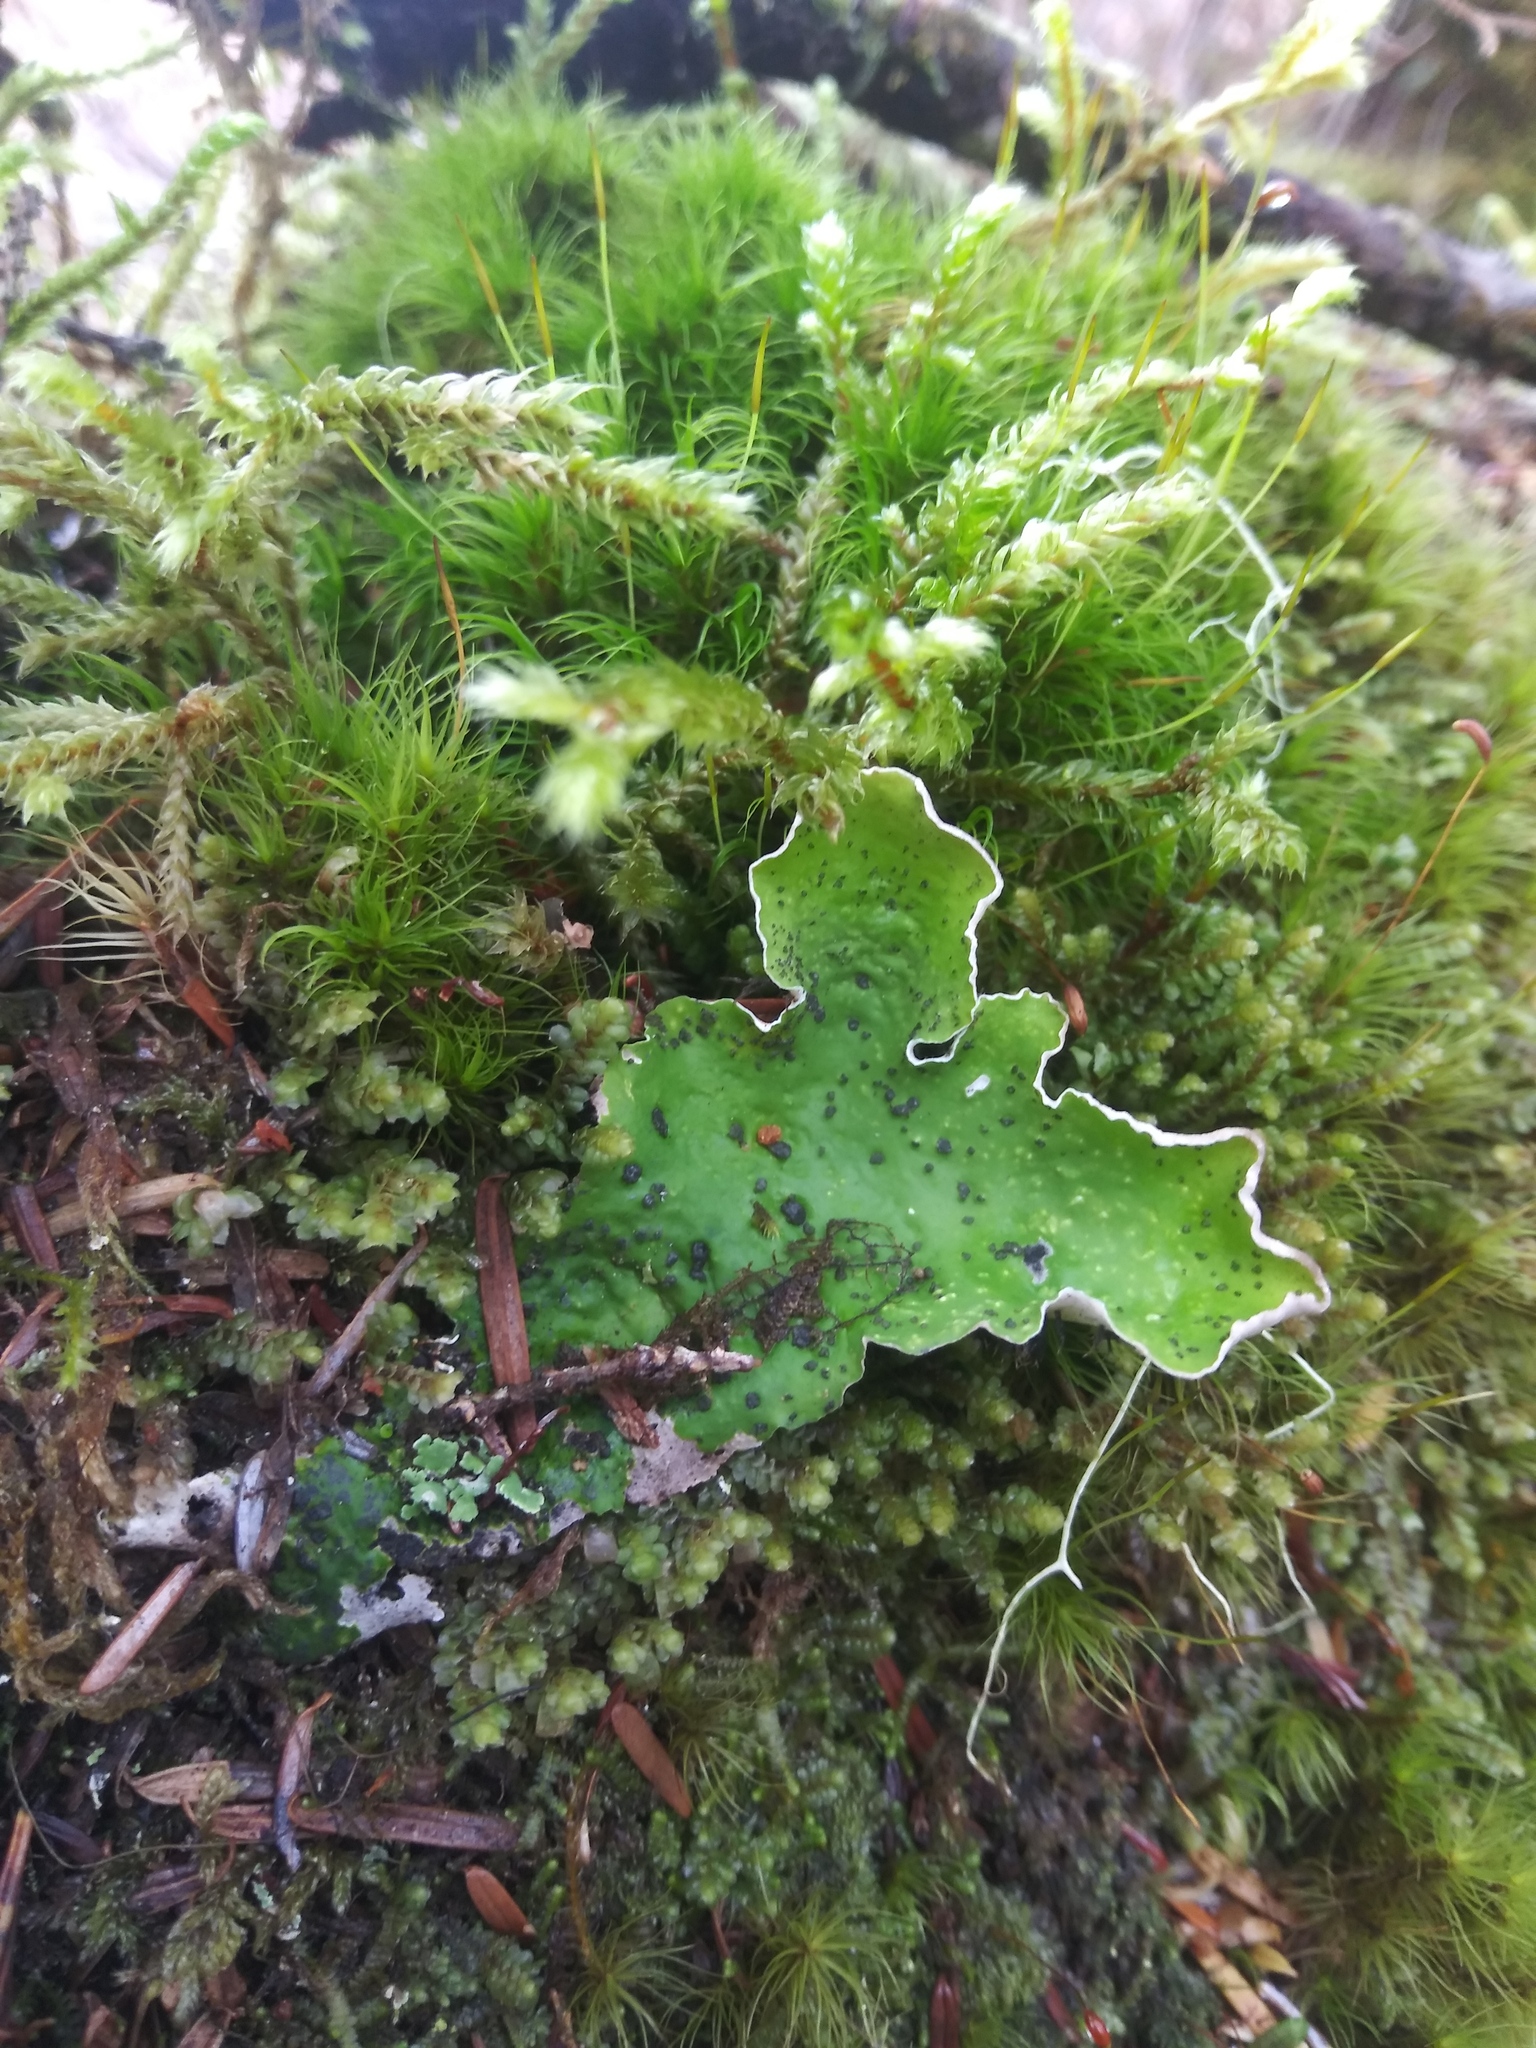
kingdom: Fungi
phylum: Ascomycota
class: Lecanoromycetes
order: Peltigerales
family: Peltigeraceae
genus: Peltigera
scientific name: Peltigera britannica
